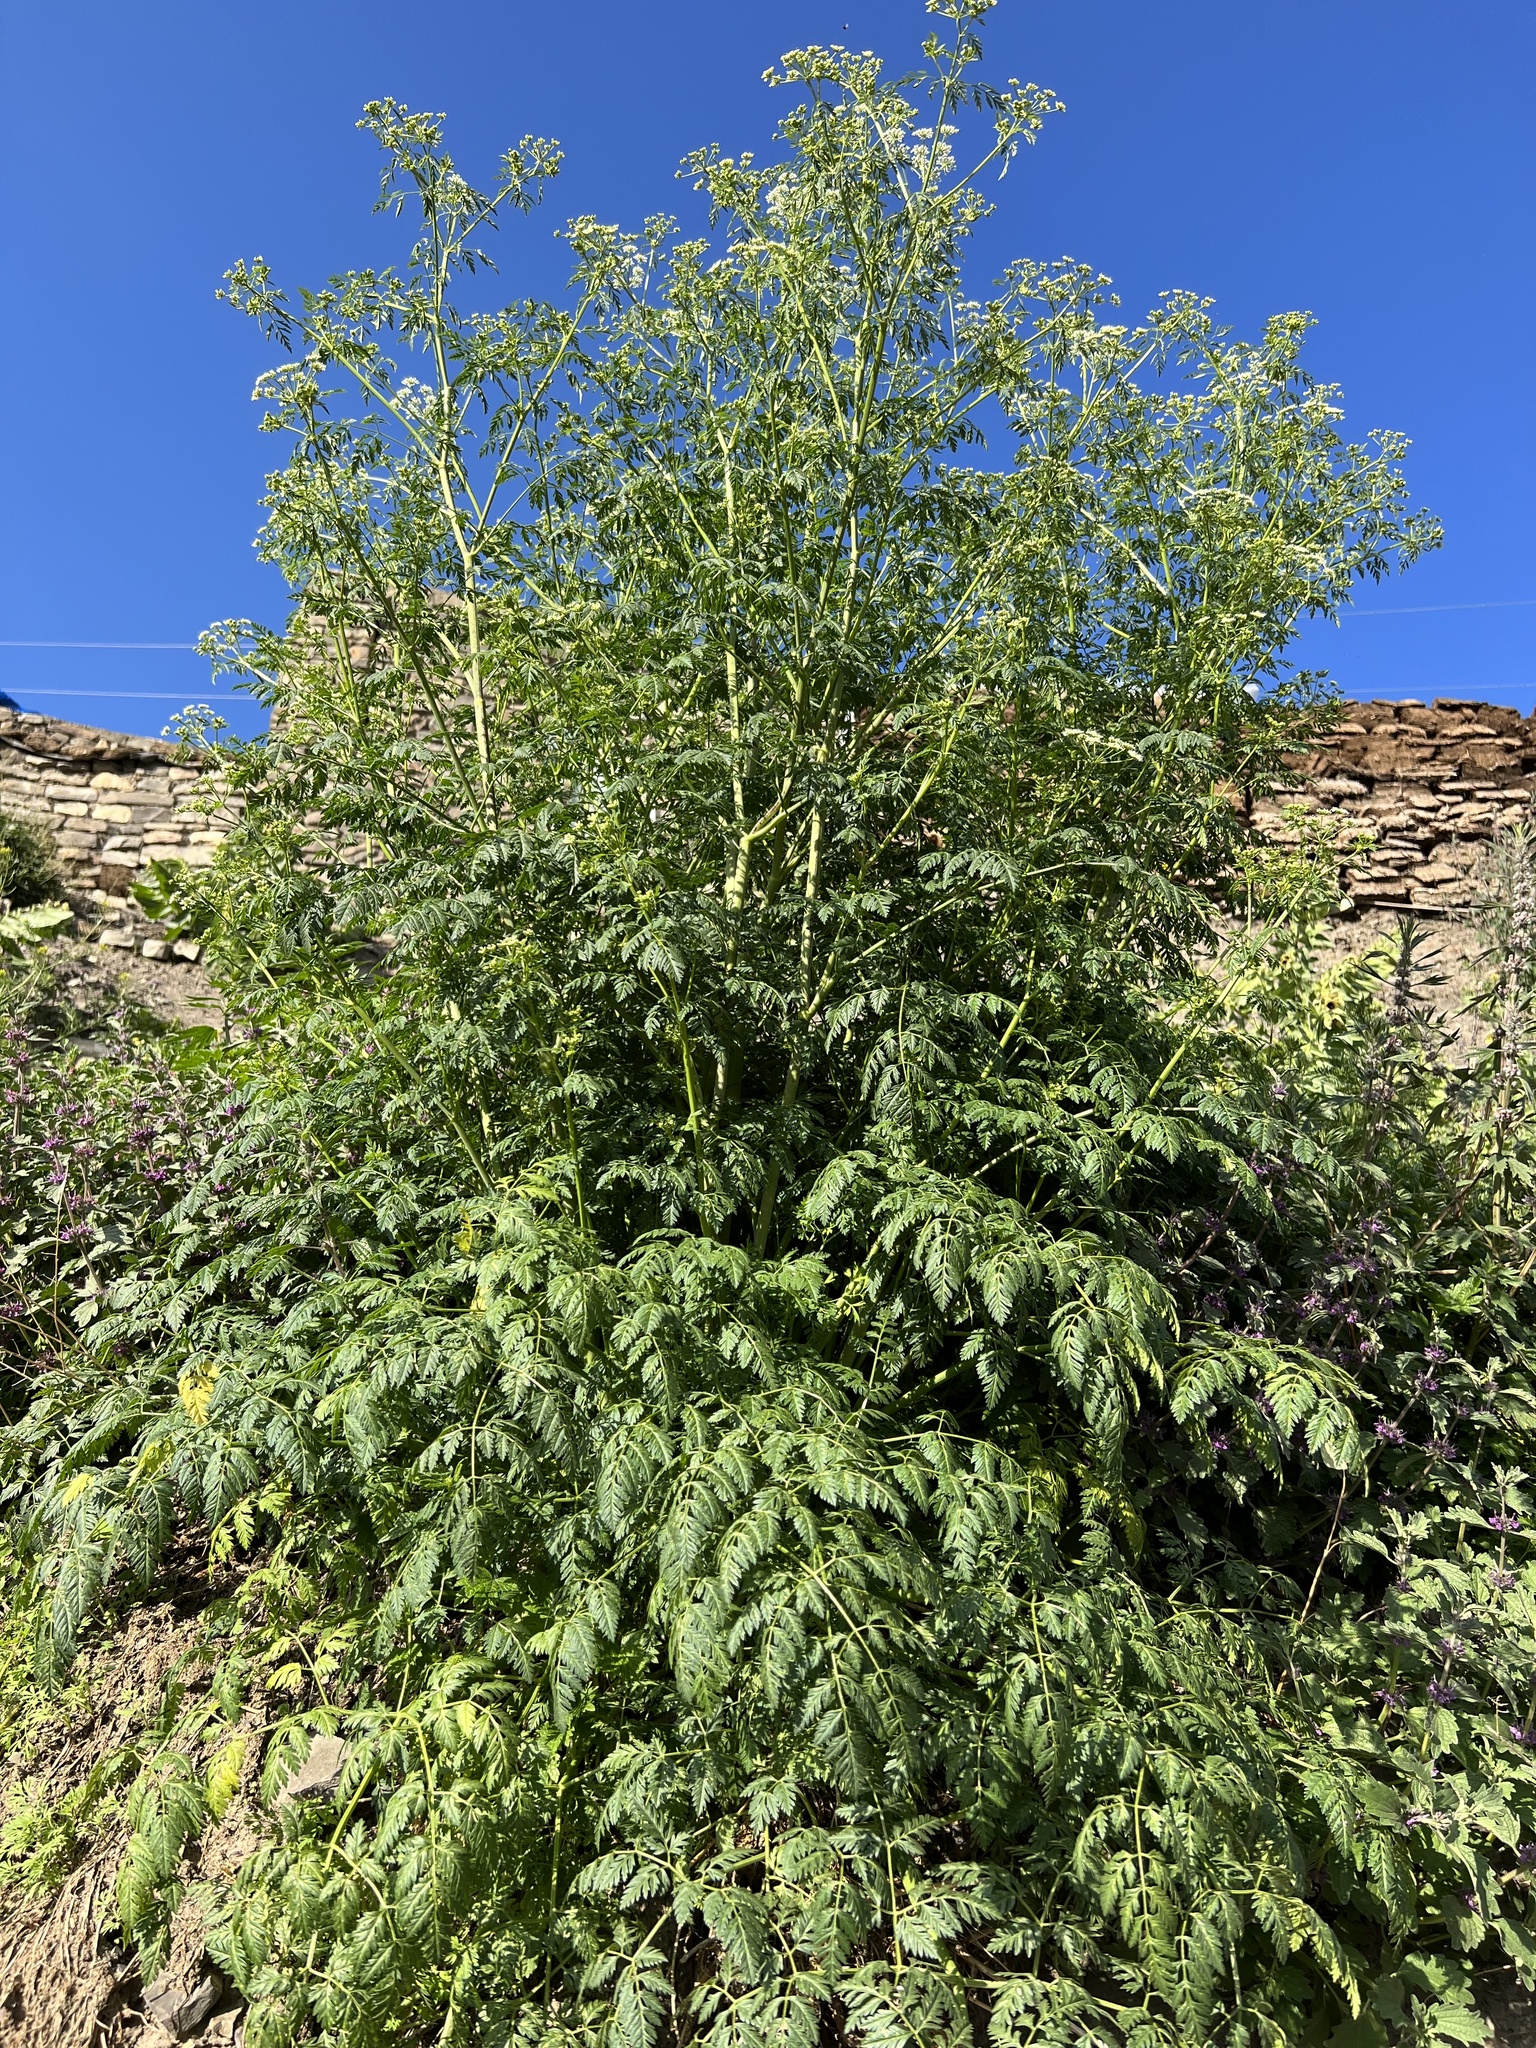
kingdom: Plantae
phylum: Tracheophyta
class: Magnoliopsida
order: Apiales
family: Apiaceae
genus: Conium
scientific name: Conium maculatum
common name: Hemlock
